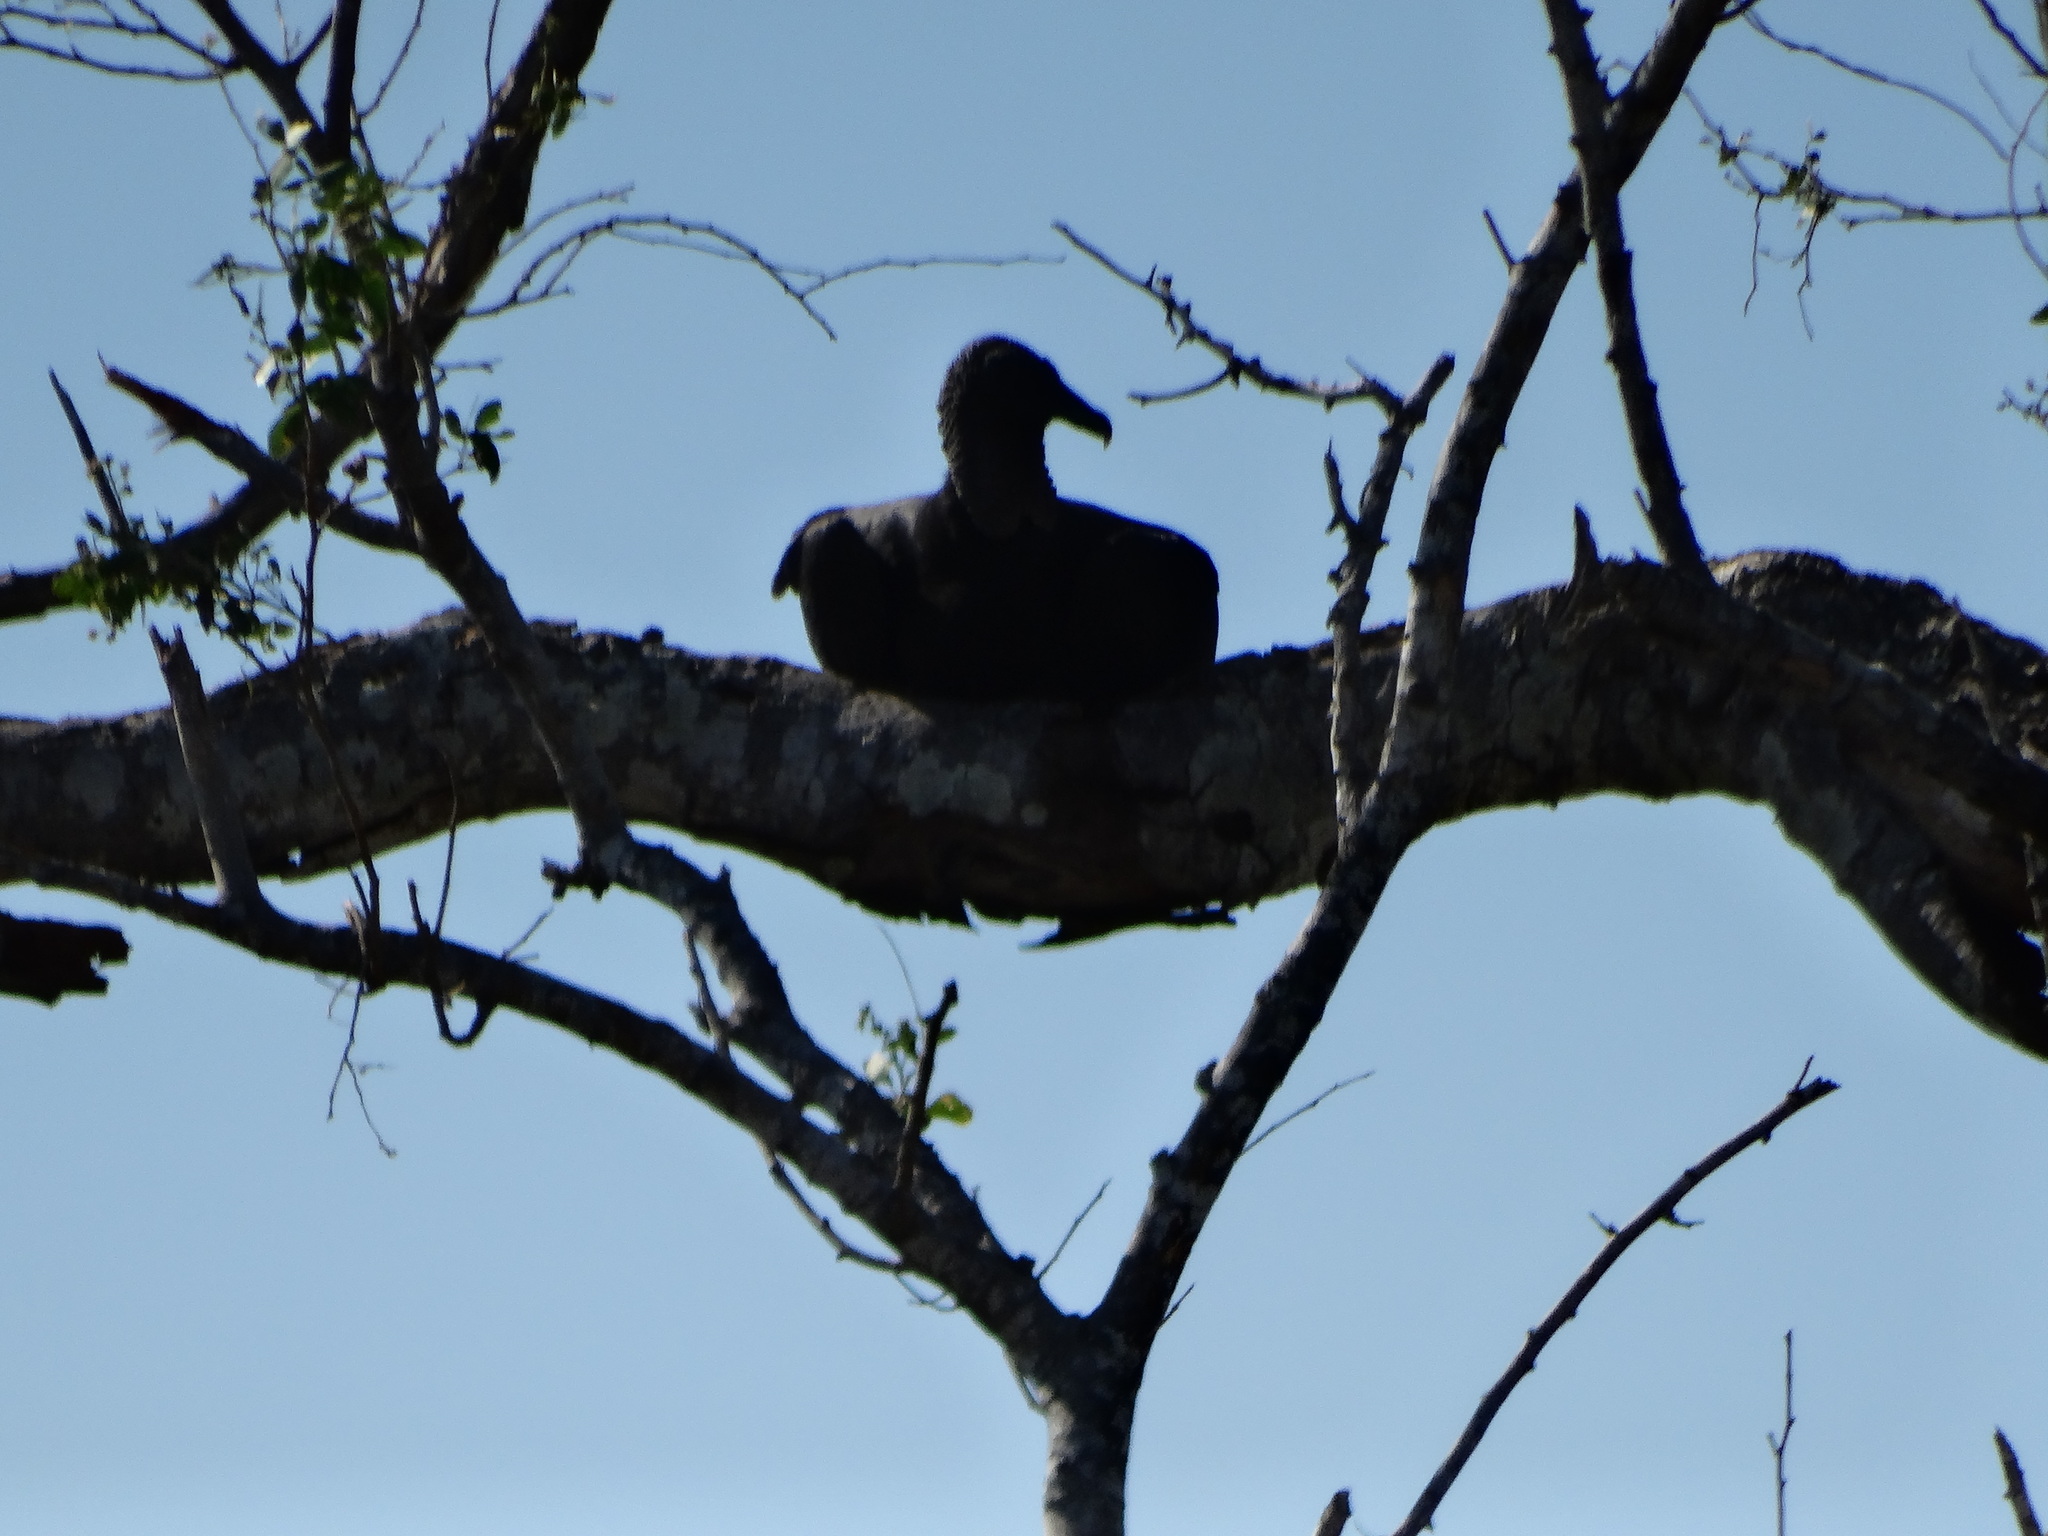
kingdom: Animalia
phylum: Chordata
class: Aves
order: Accipitriformes
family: Cathartidae
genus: Coragyps
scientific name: Coragyps atratus
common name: Black vulture
